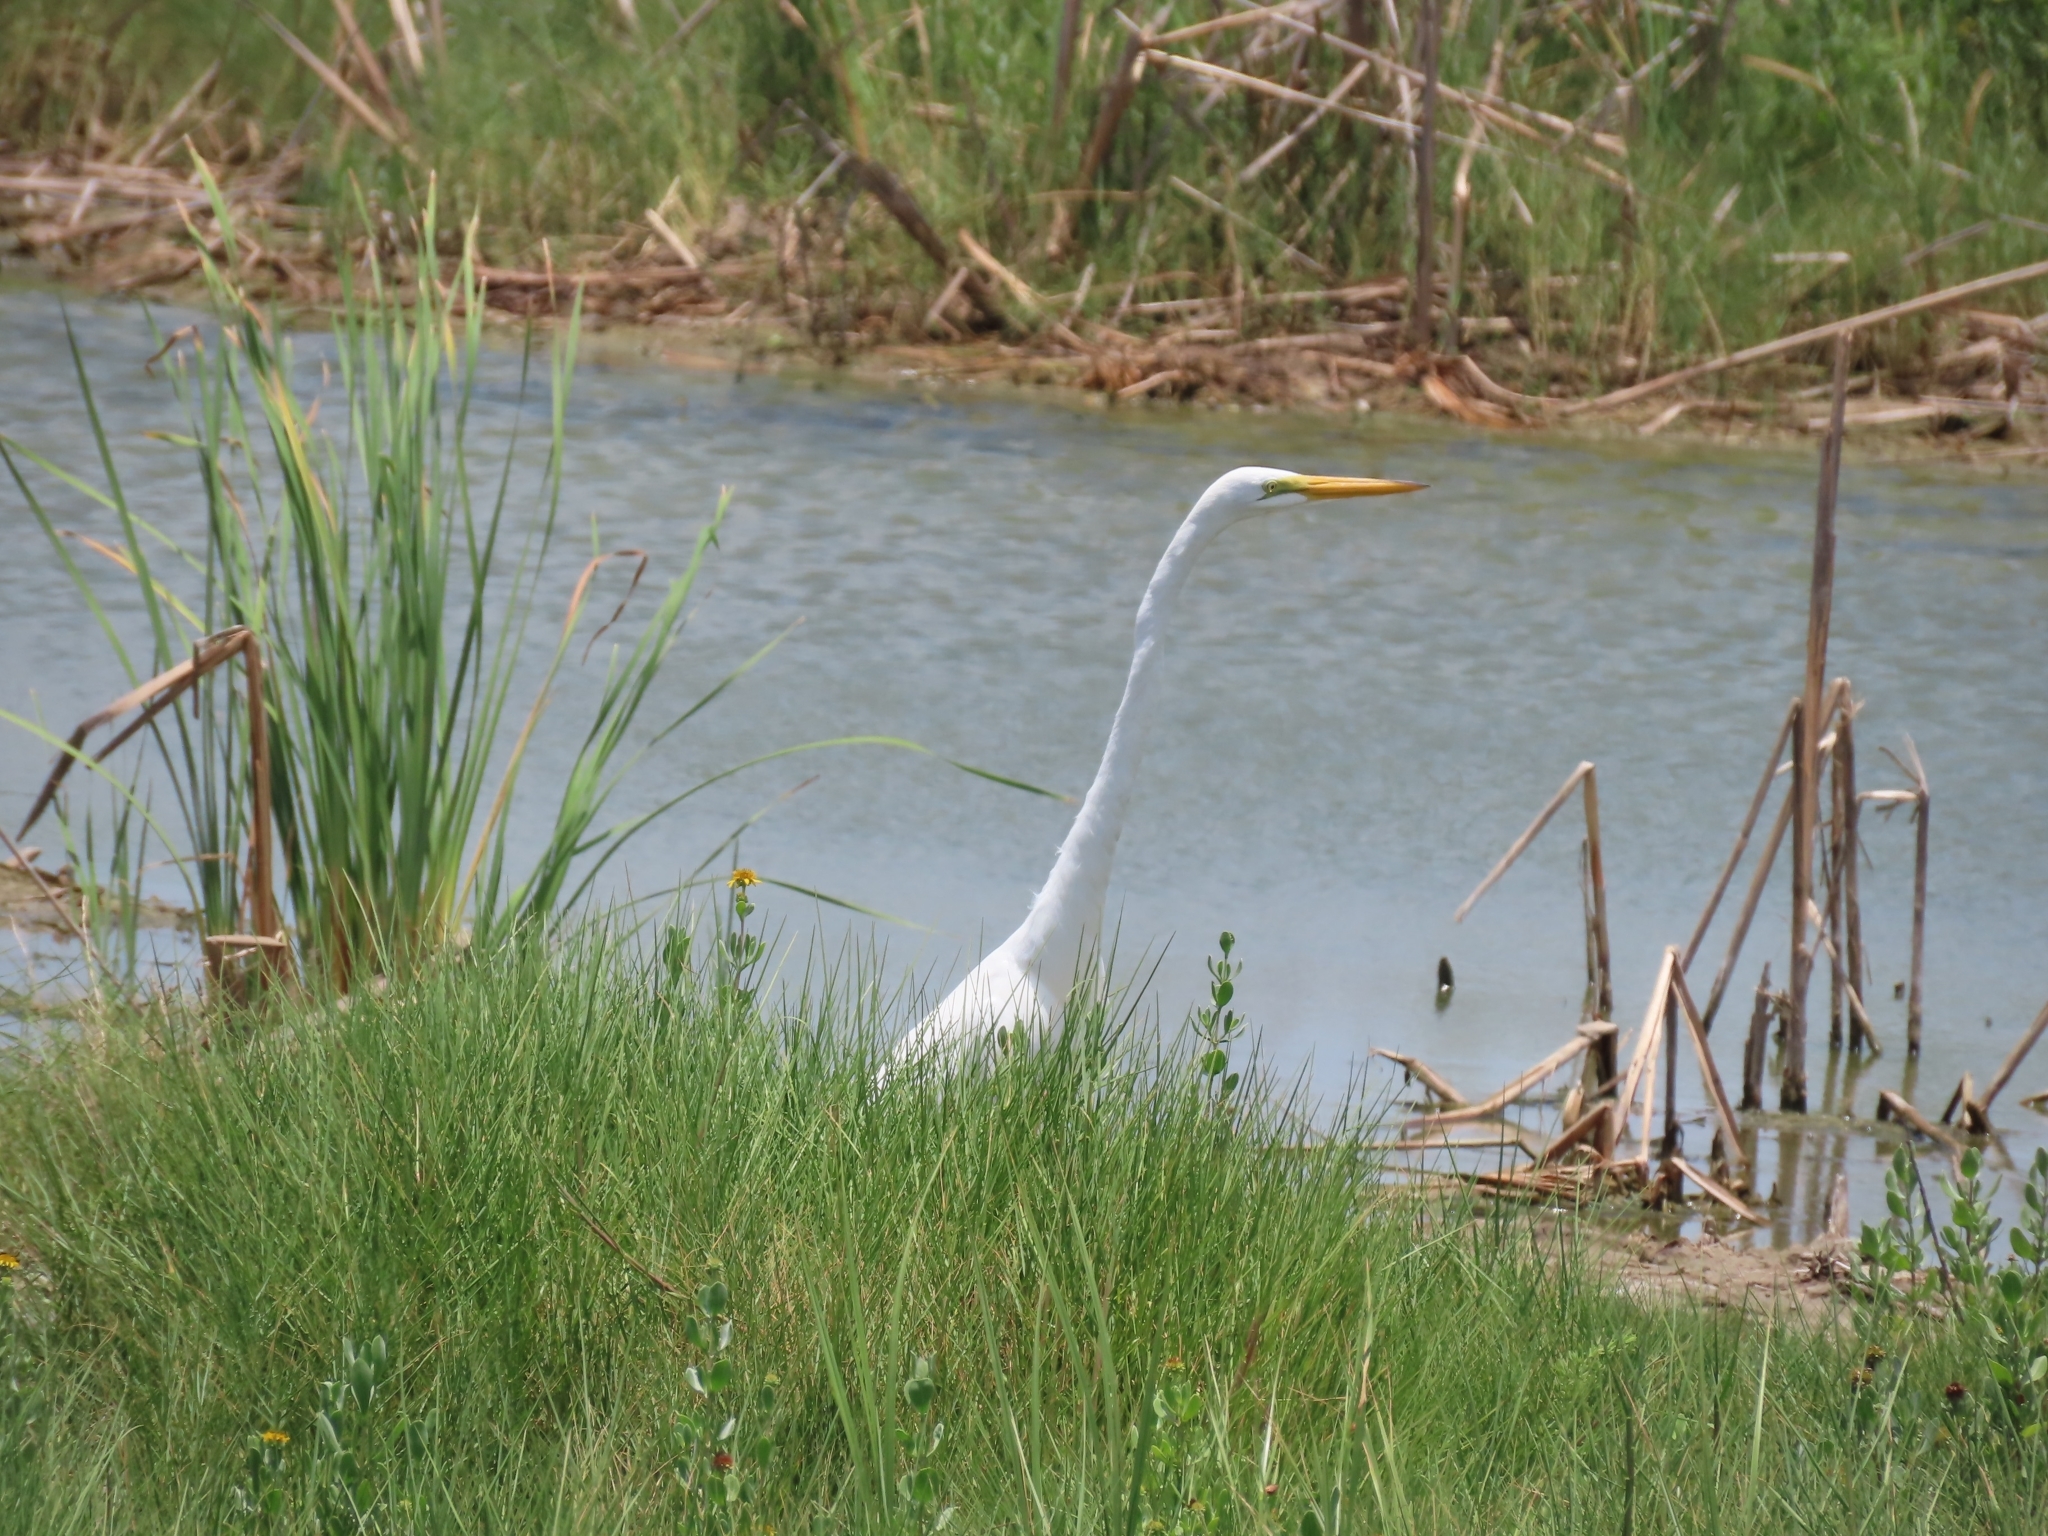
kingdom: Animalia
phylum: Chordata
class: Aves
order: Pelecaniformes
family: Ardeidae
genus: Ardea
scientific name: Ardea alba
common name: Great egret
